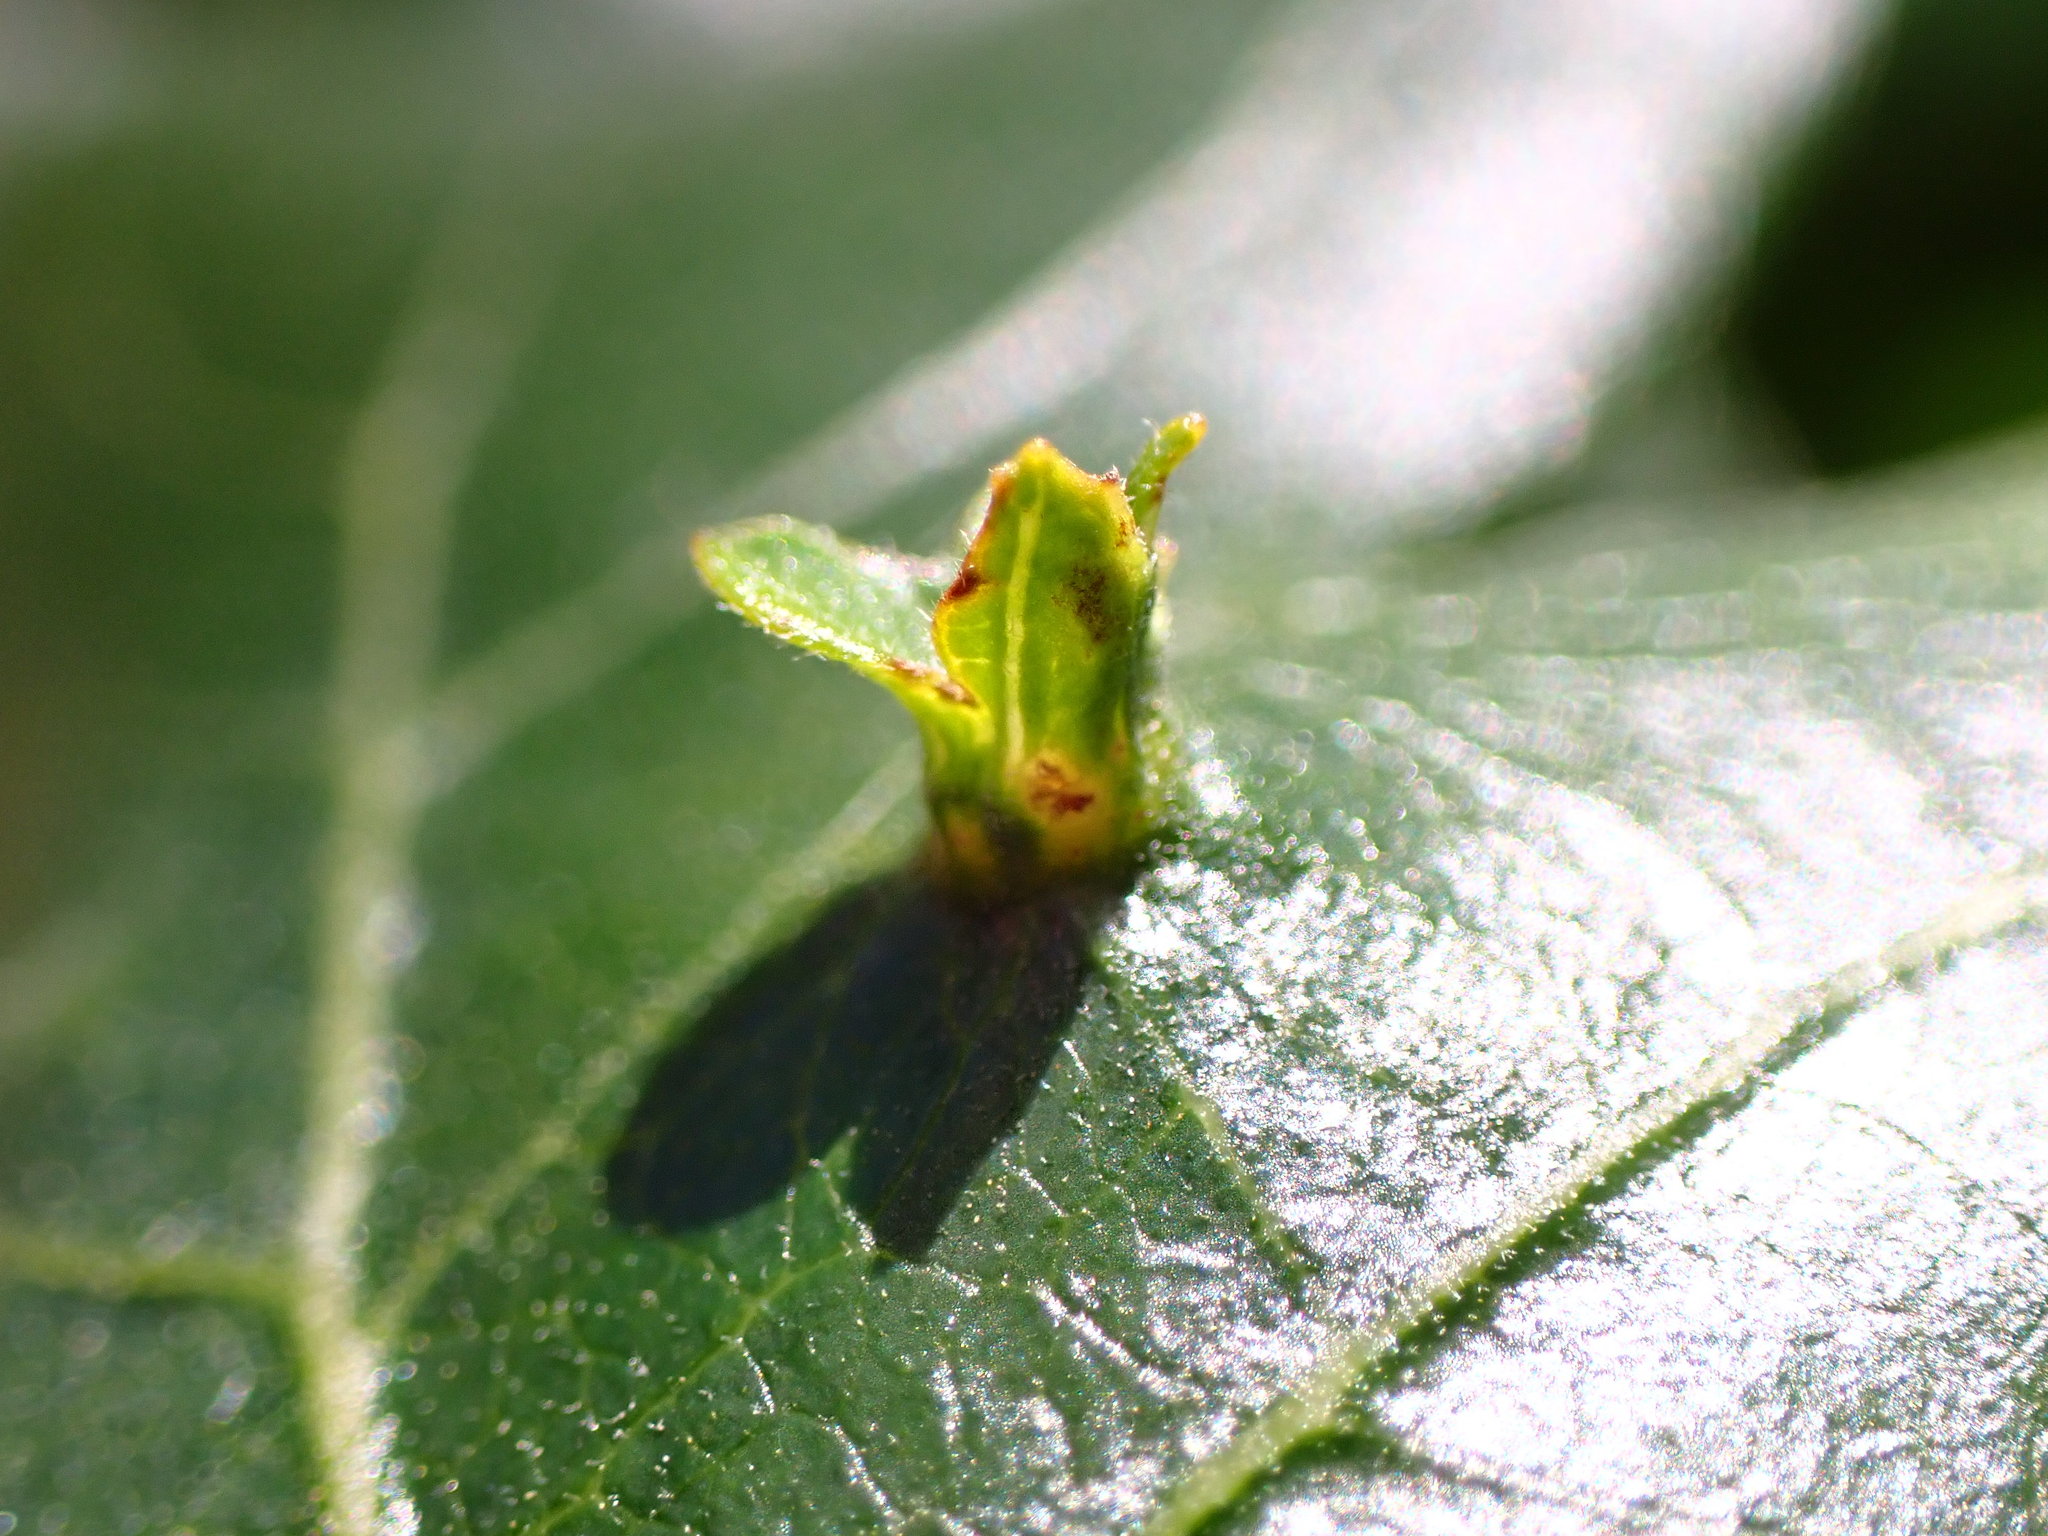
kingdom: Animalia
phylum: Arthropoda
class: Insecta
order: Hymenoptera
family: Cynipidae
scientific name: Cynipidae
